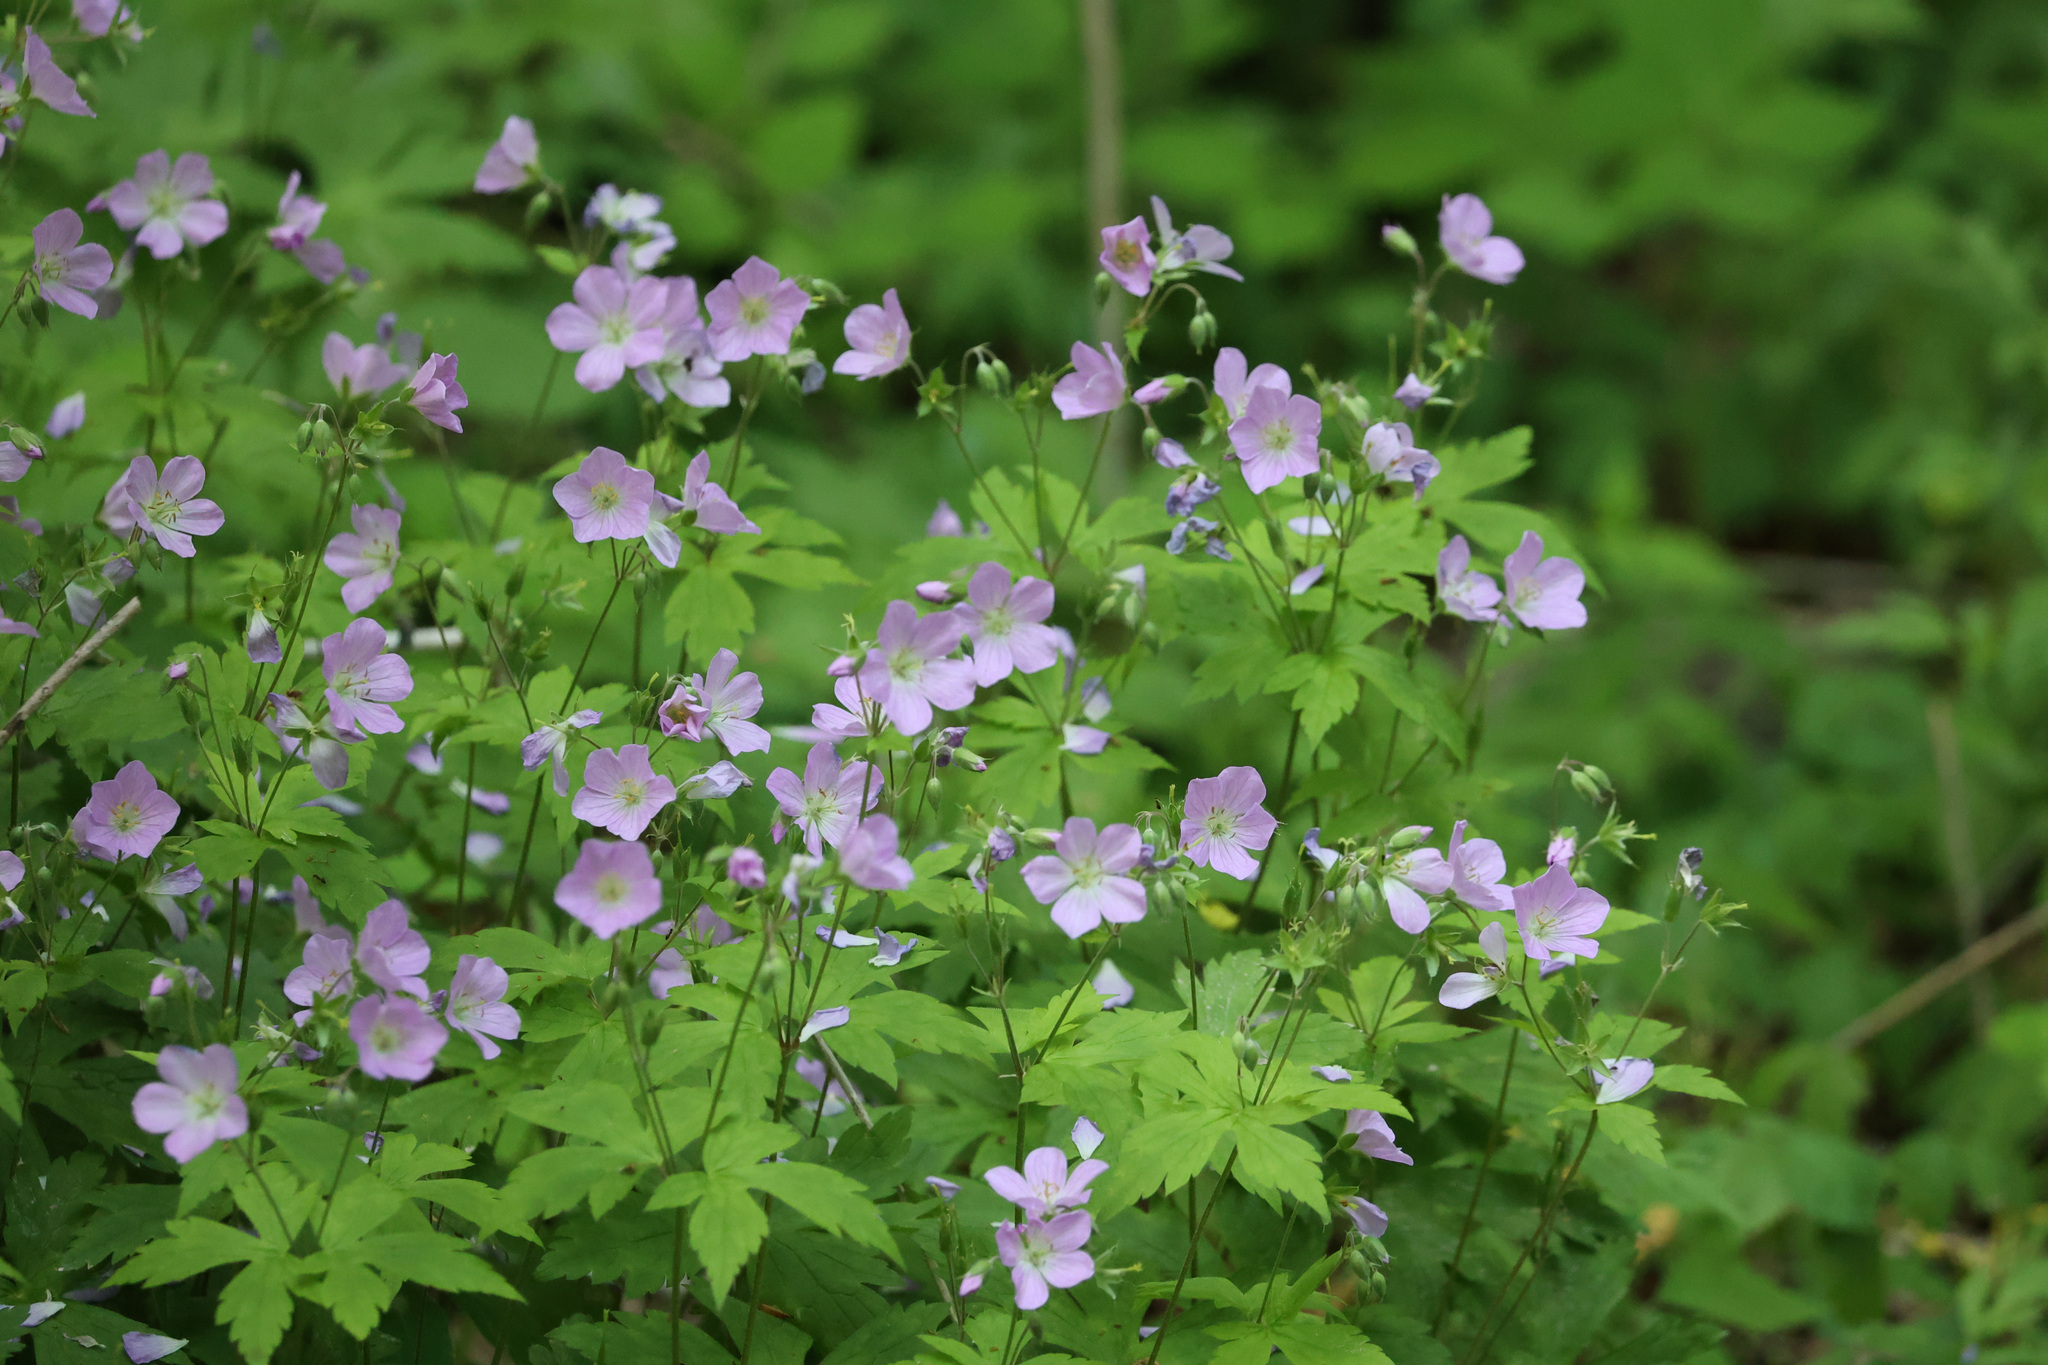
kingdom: Plantae
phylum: Tracheophyta
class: Magnoliopsida
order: Geraniales
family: Geraniaceae
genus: Geranium
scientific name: Geranium maculatum
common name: Spotted geranium
